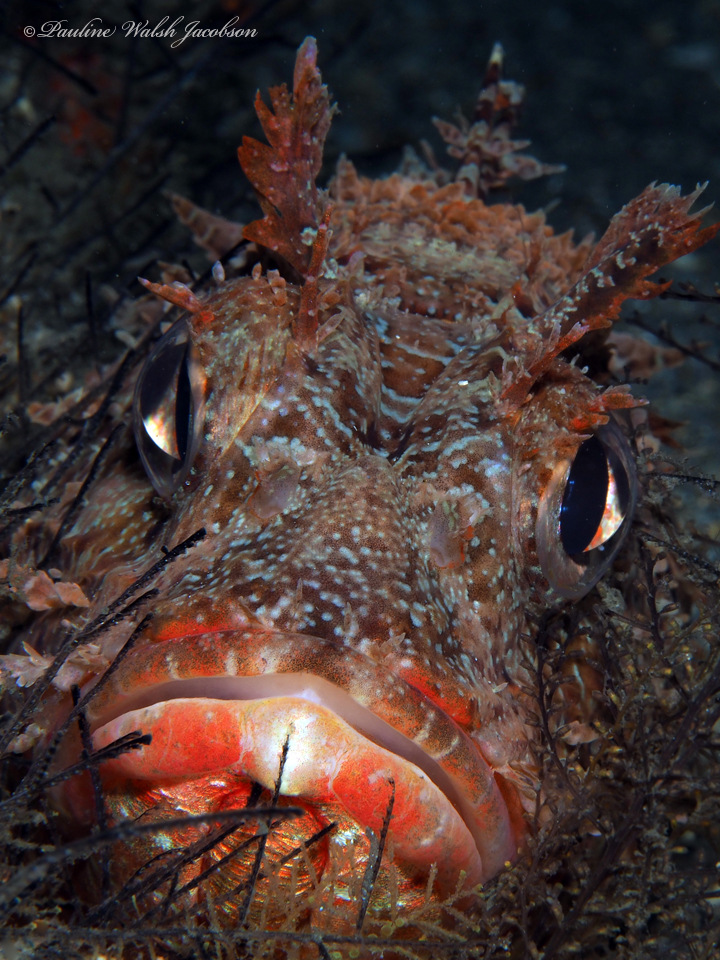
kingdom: Animalia
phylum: Chordata
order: Scorpaeniformes
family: Scorpaenidae
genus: Scorpaena
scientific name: Scorpaena brasiliensis
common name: Barbfish
